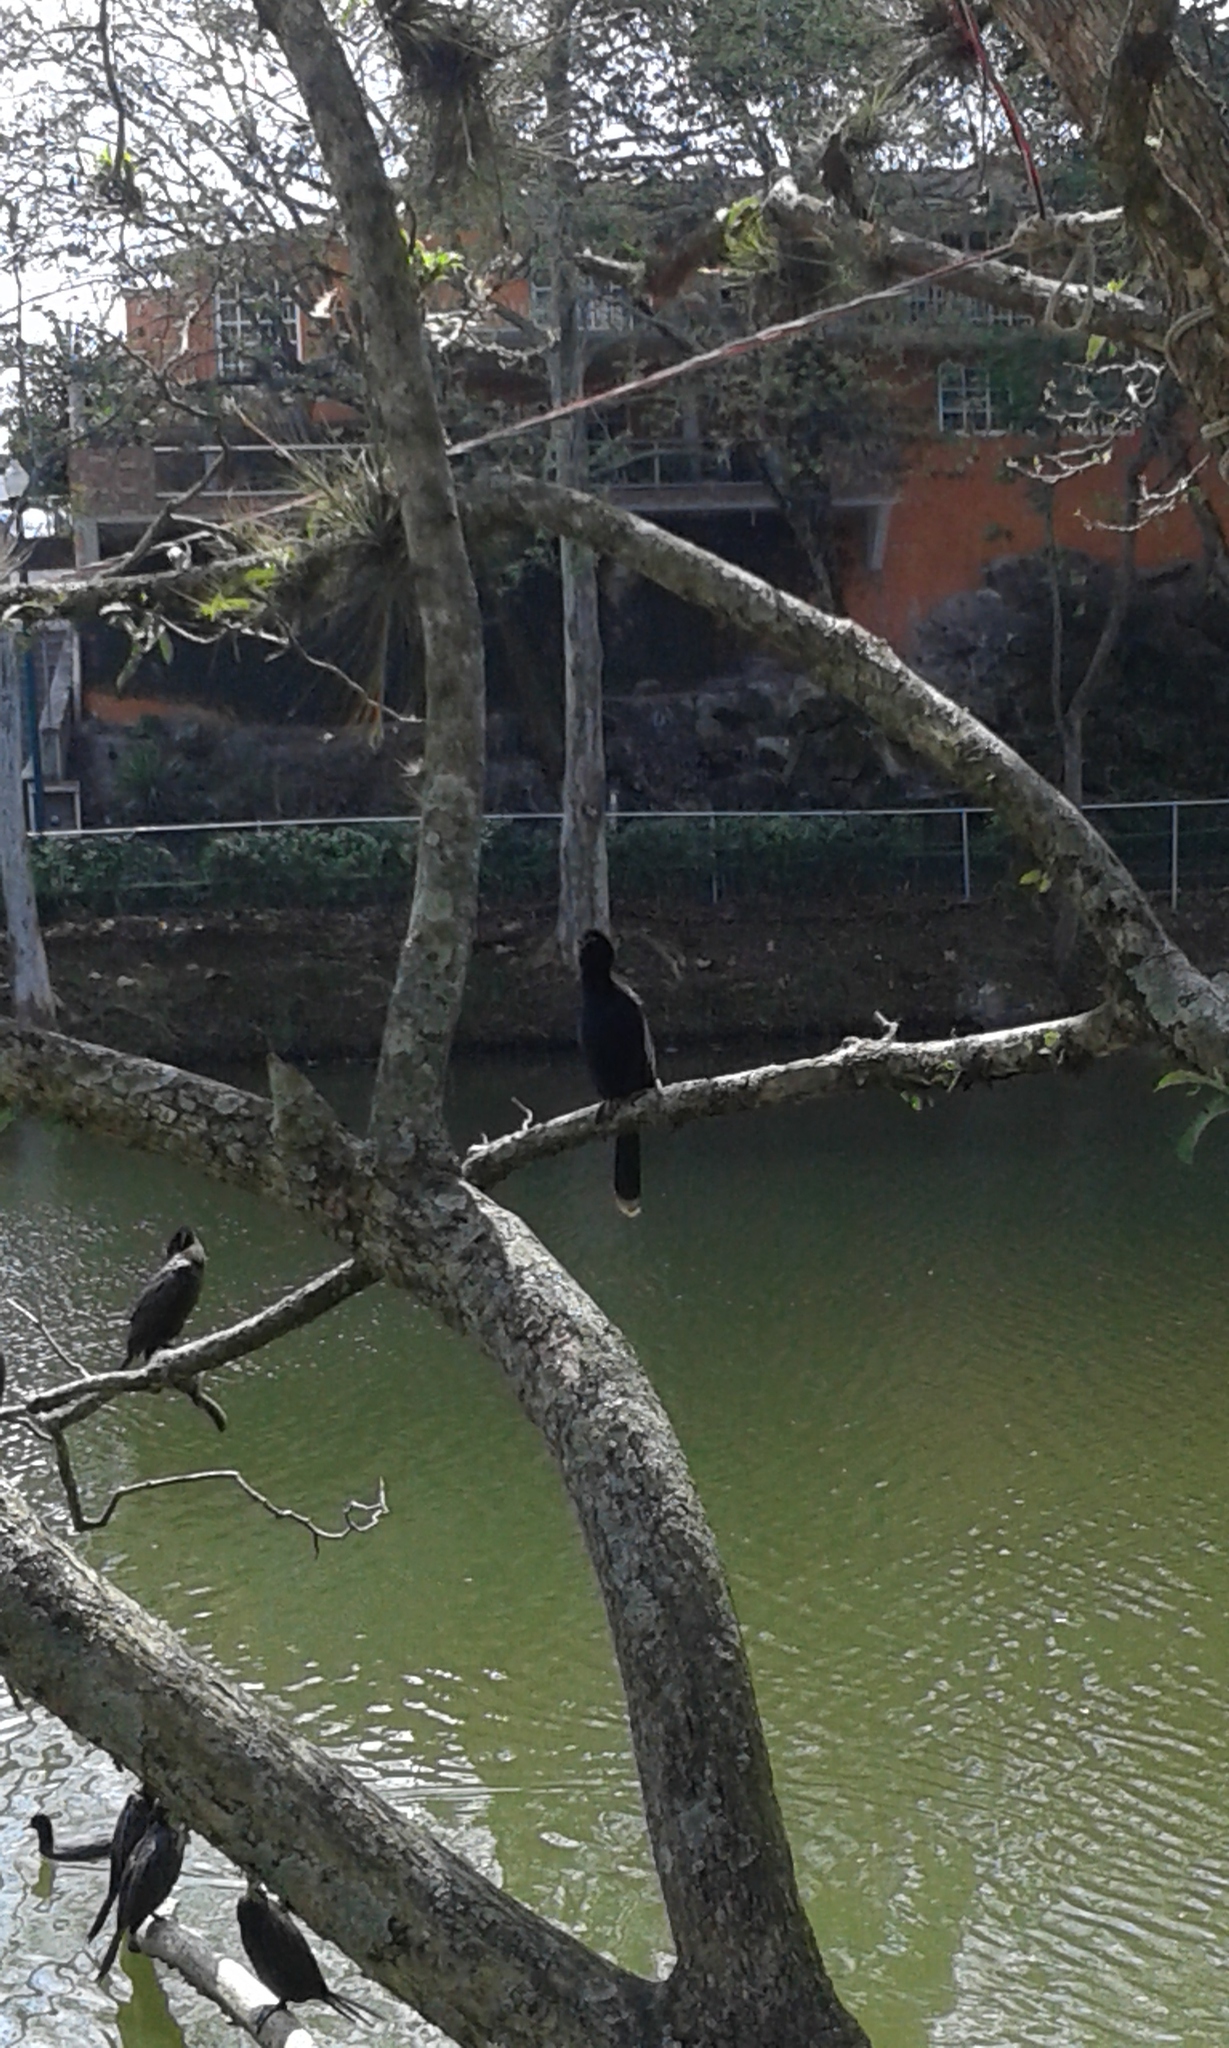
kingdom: Animalia
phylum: Chordata
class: Aves
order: Suliformes
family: Anhingidae
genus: Anhinga
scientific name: Anhinga anhinga
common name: Anhinga
